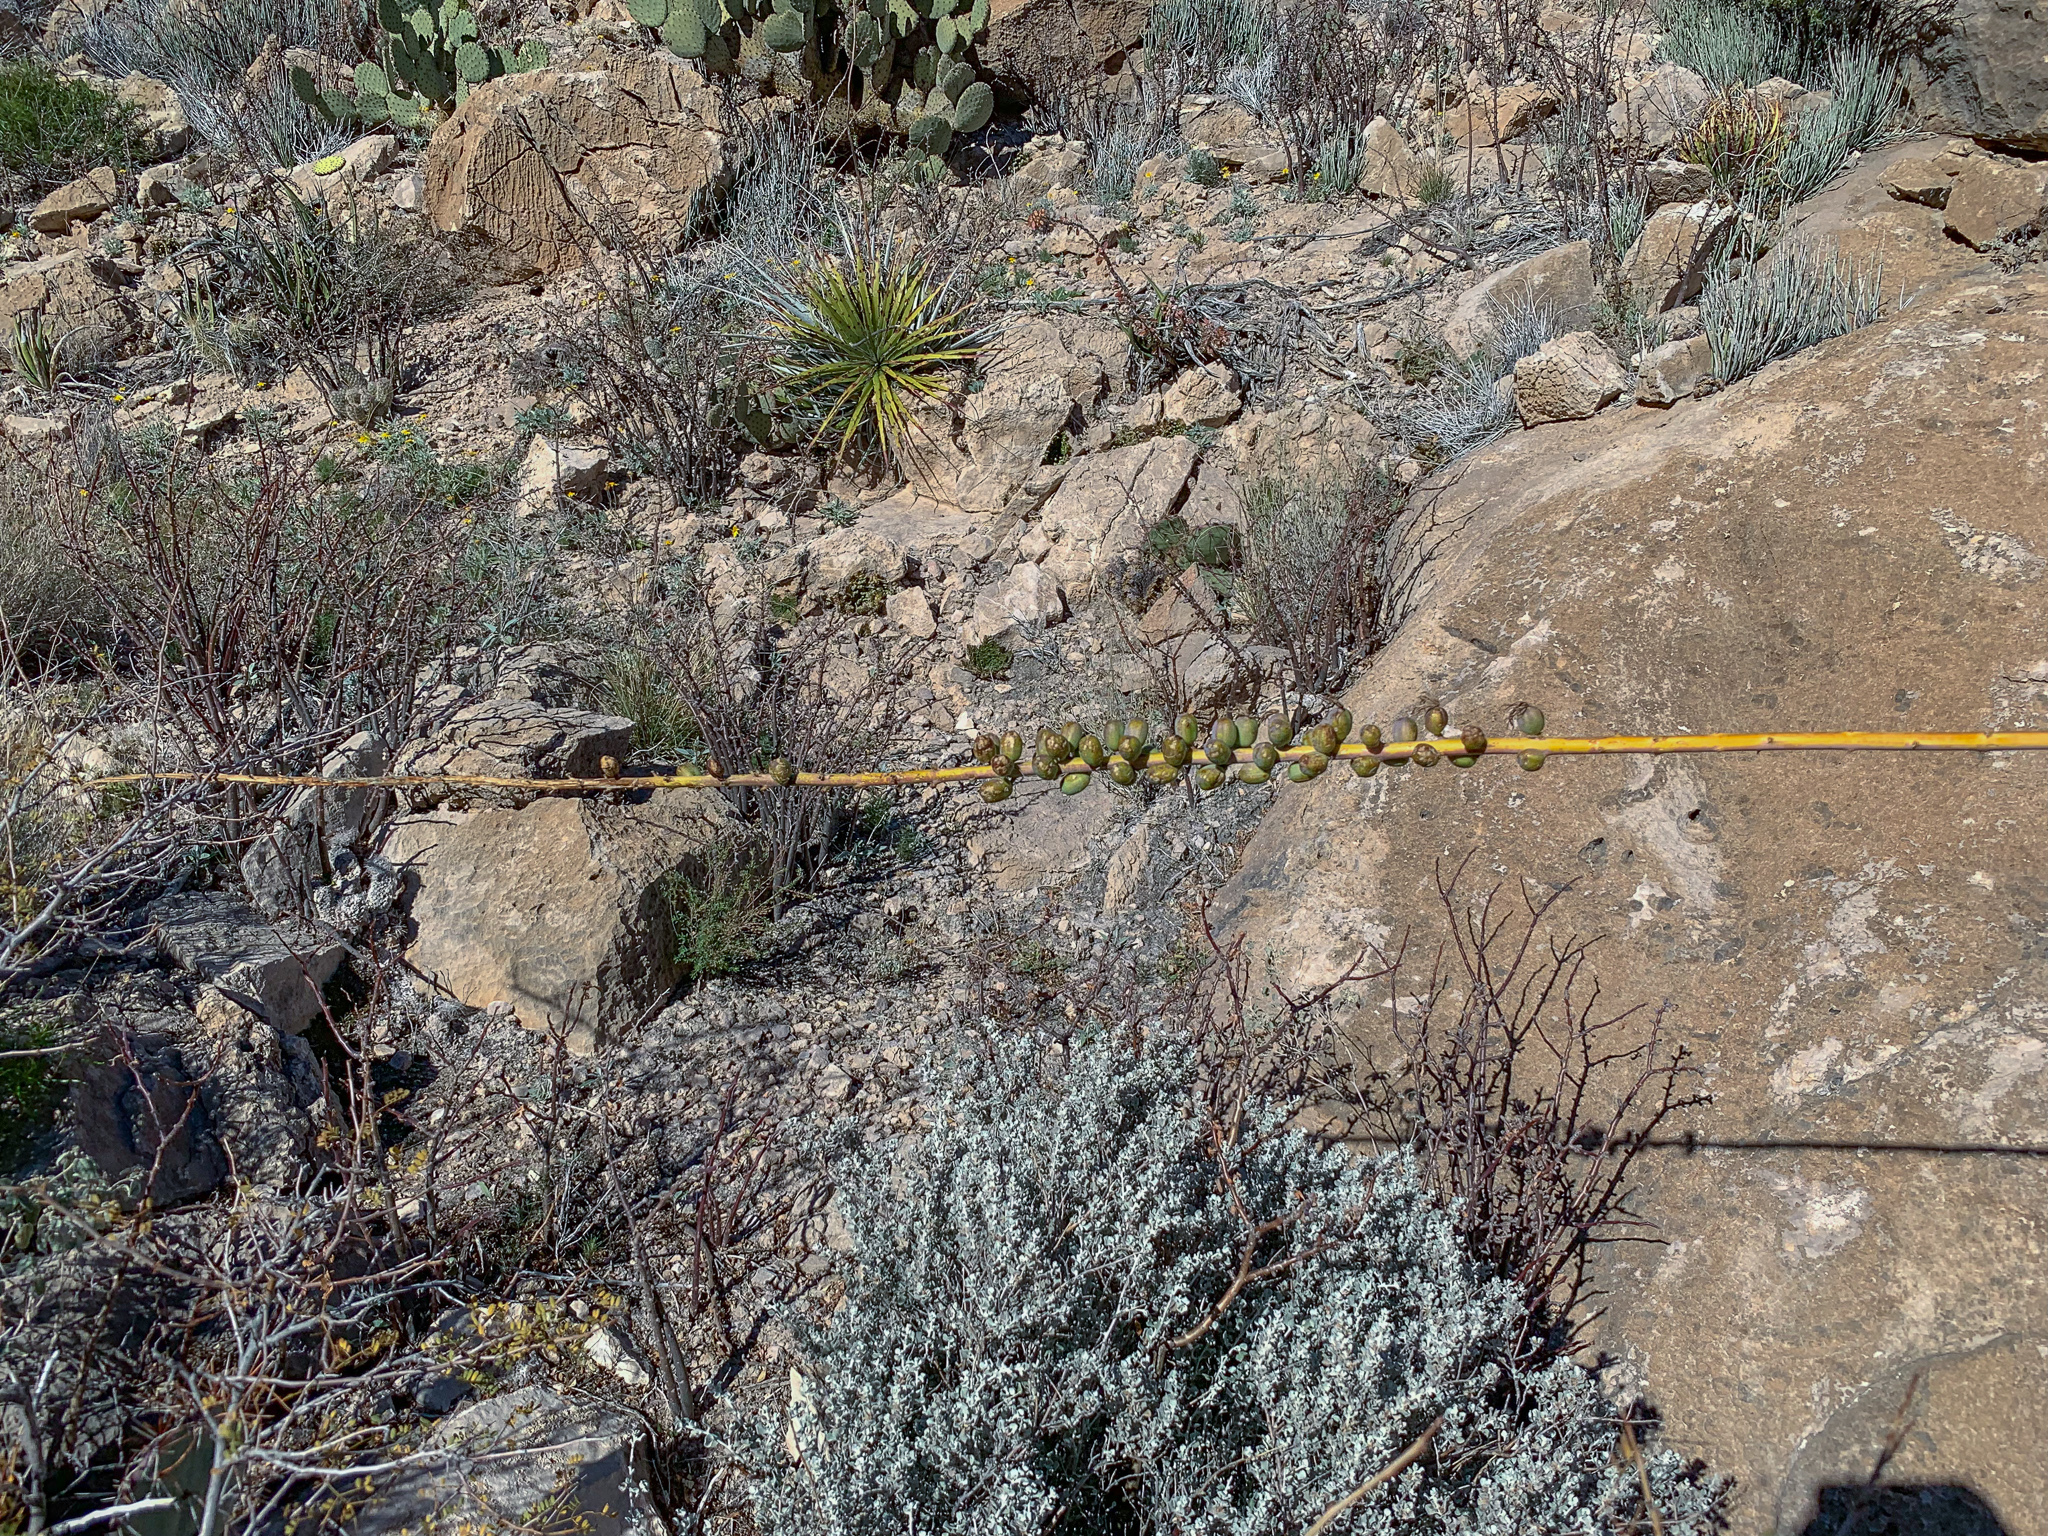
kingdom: Plantae
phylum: Tracheophyta
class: Liliopsida
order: Asparagales
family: Asparagaceae
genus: Agave
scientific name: Agave lechuguilla
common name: Lecheguilla agave
